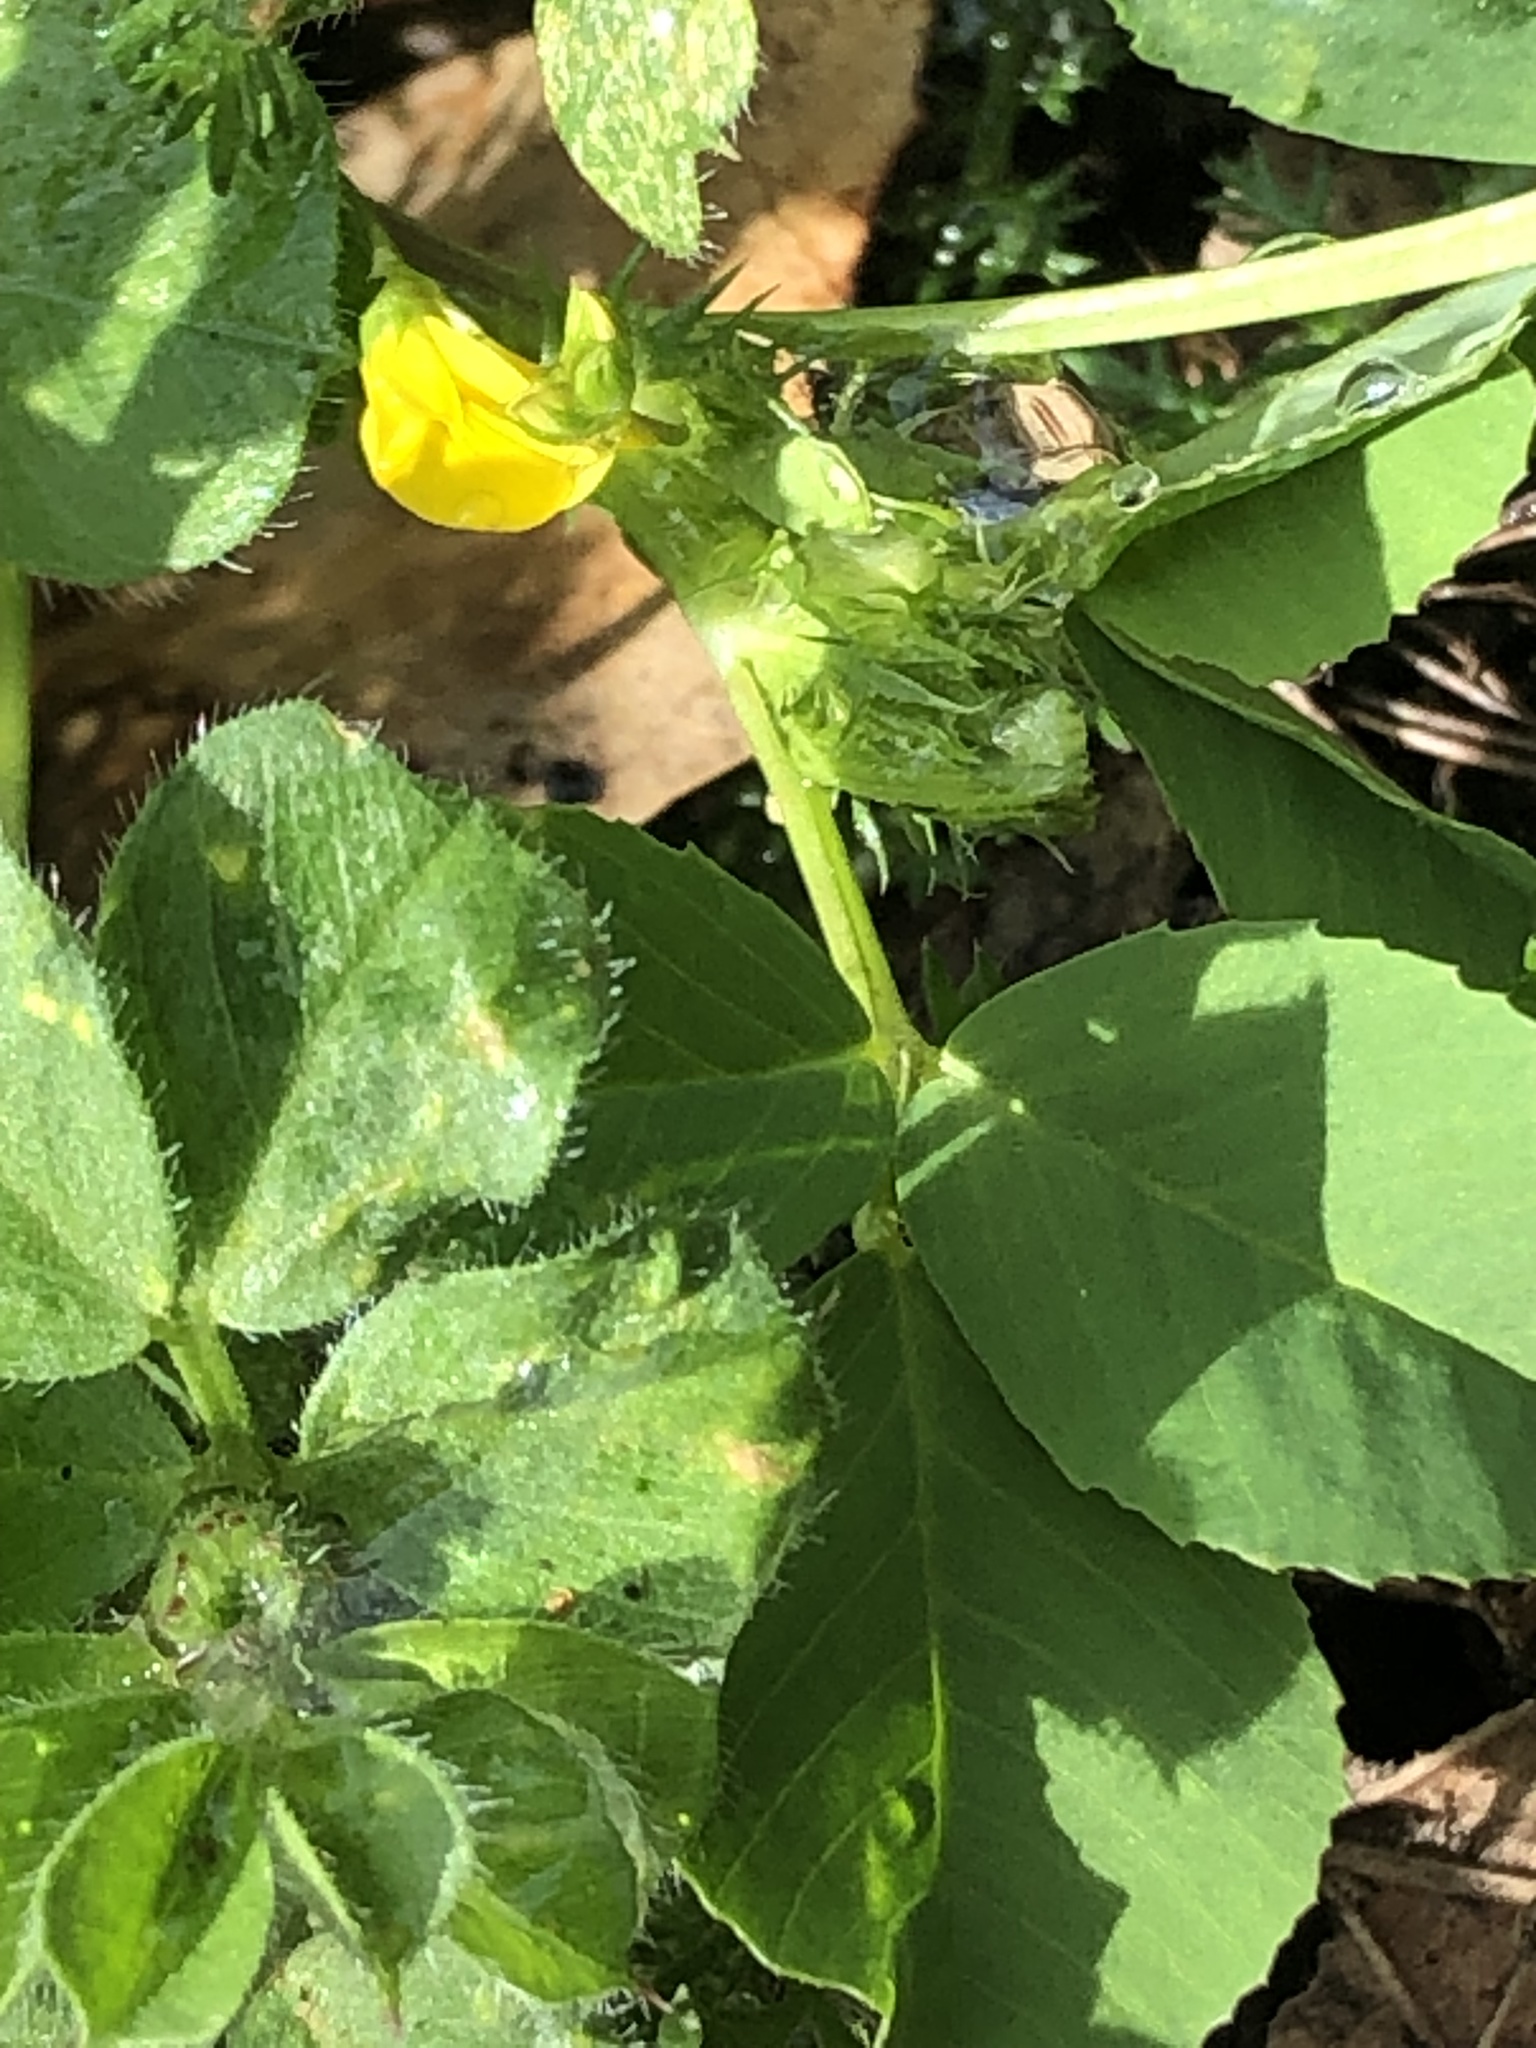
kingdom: Plantae
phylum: Tracheophyta
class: Magnoliopsida
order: Fabales
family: Fabaceae
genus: Medicago
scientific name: Medicago polymorpha
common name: Burclover
